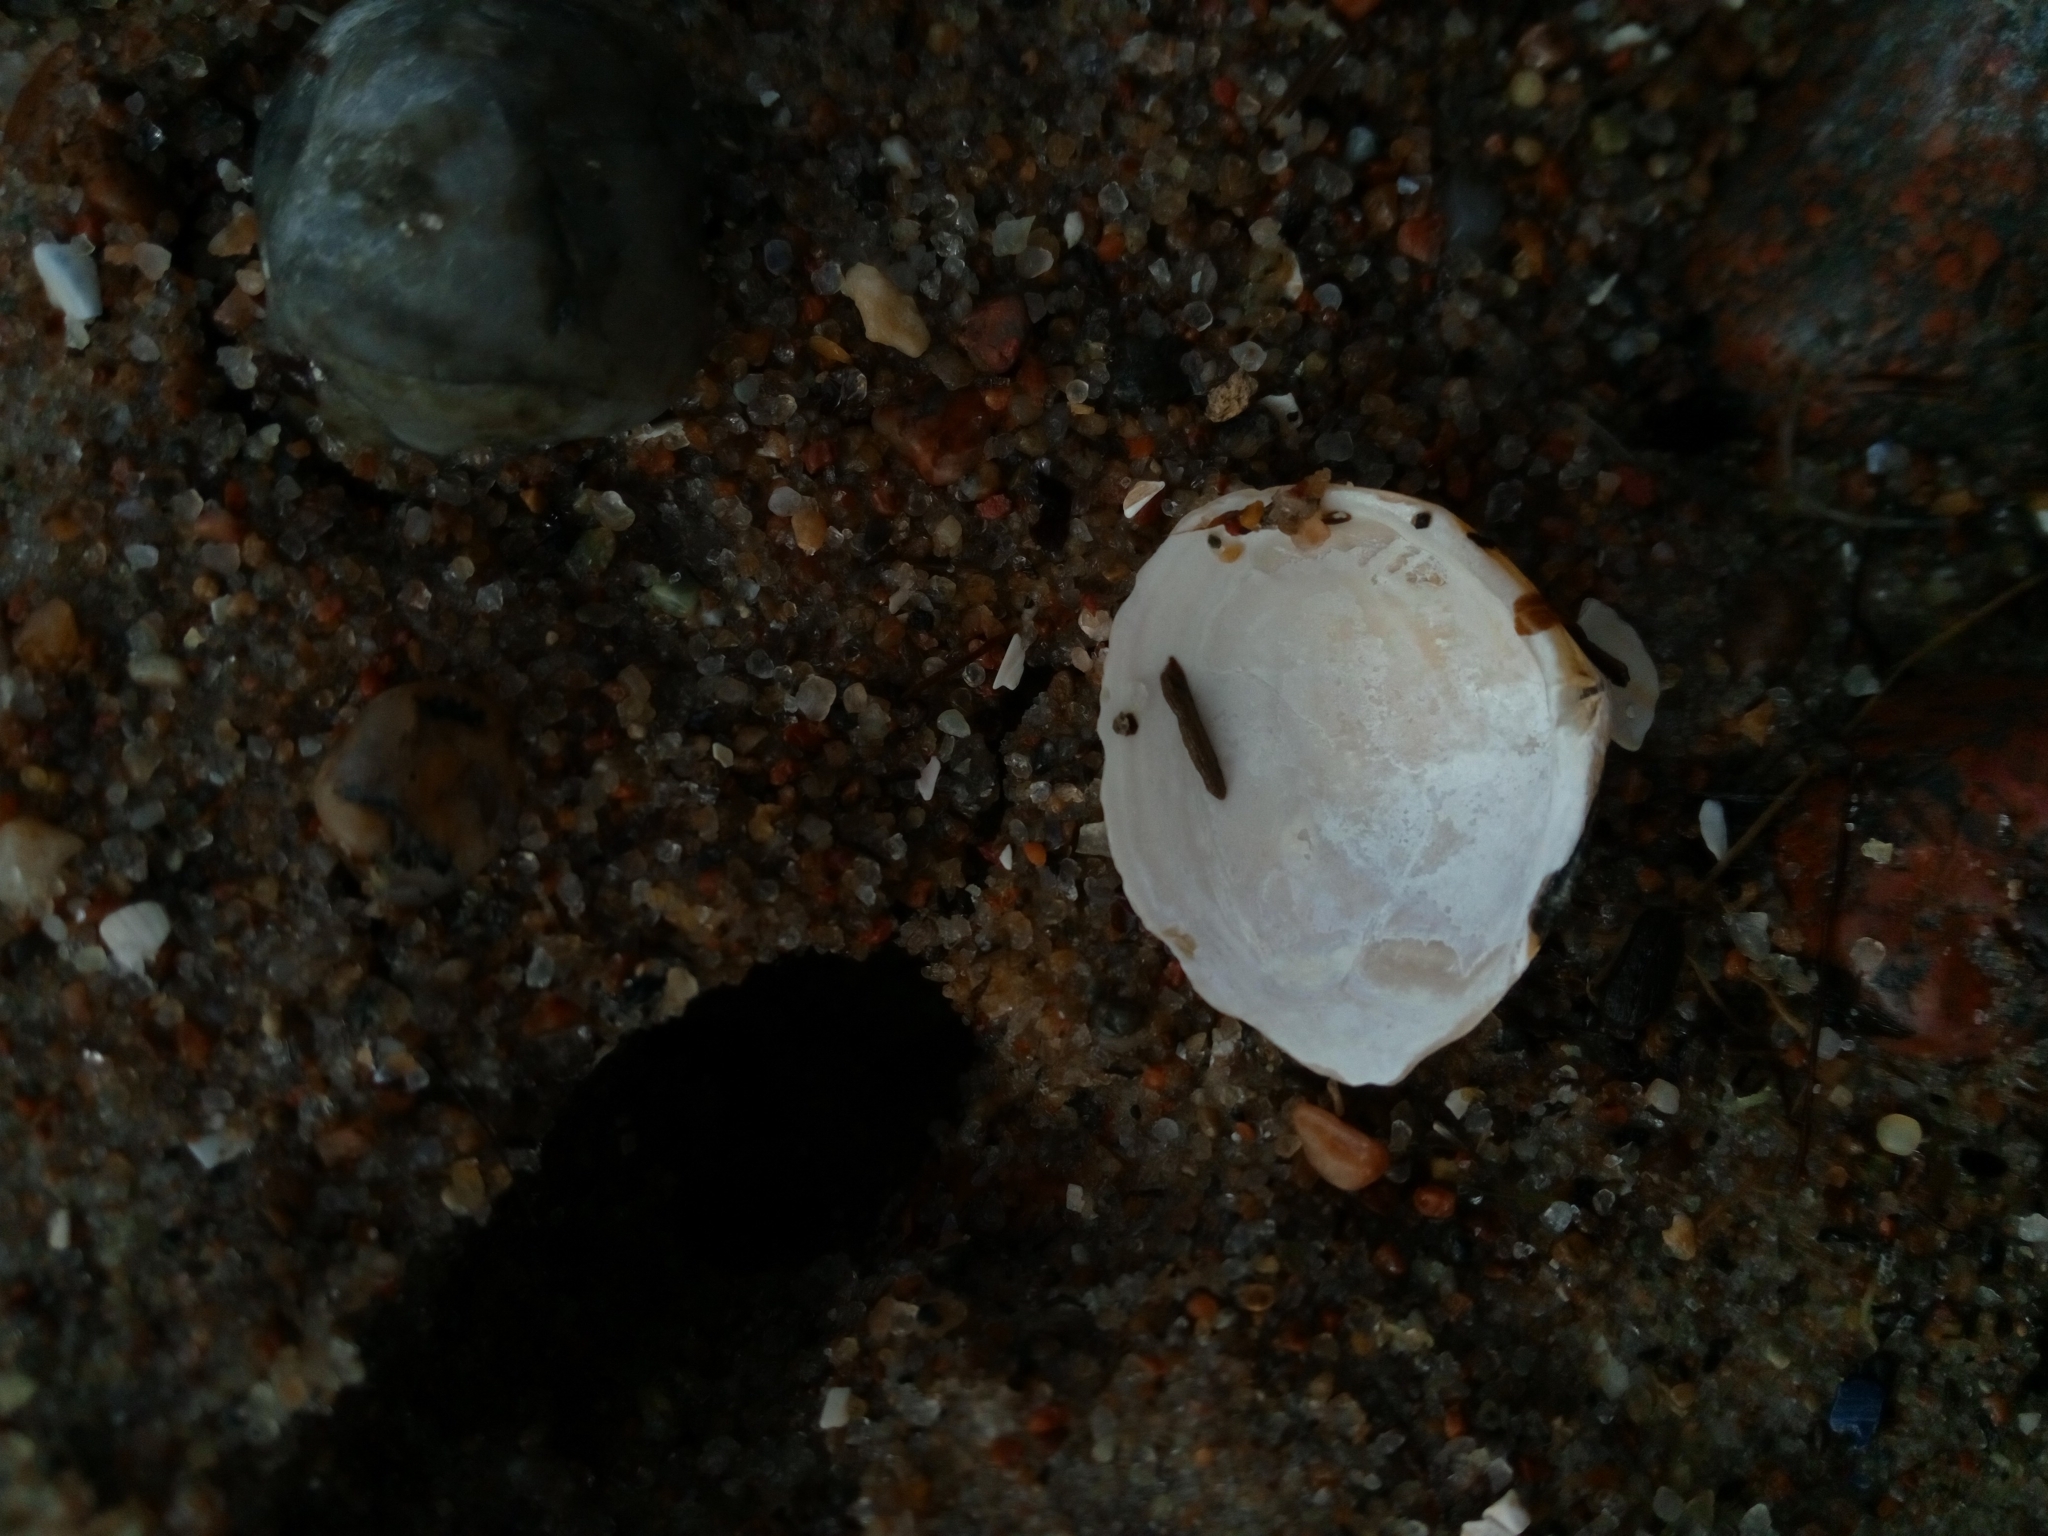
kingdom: Animalia
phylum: Mollusca
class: Bivalvia
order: Cardiida
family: Tellinidae
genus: Macoma
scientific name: Macoma balthica
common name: Baltic tellin
